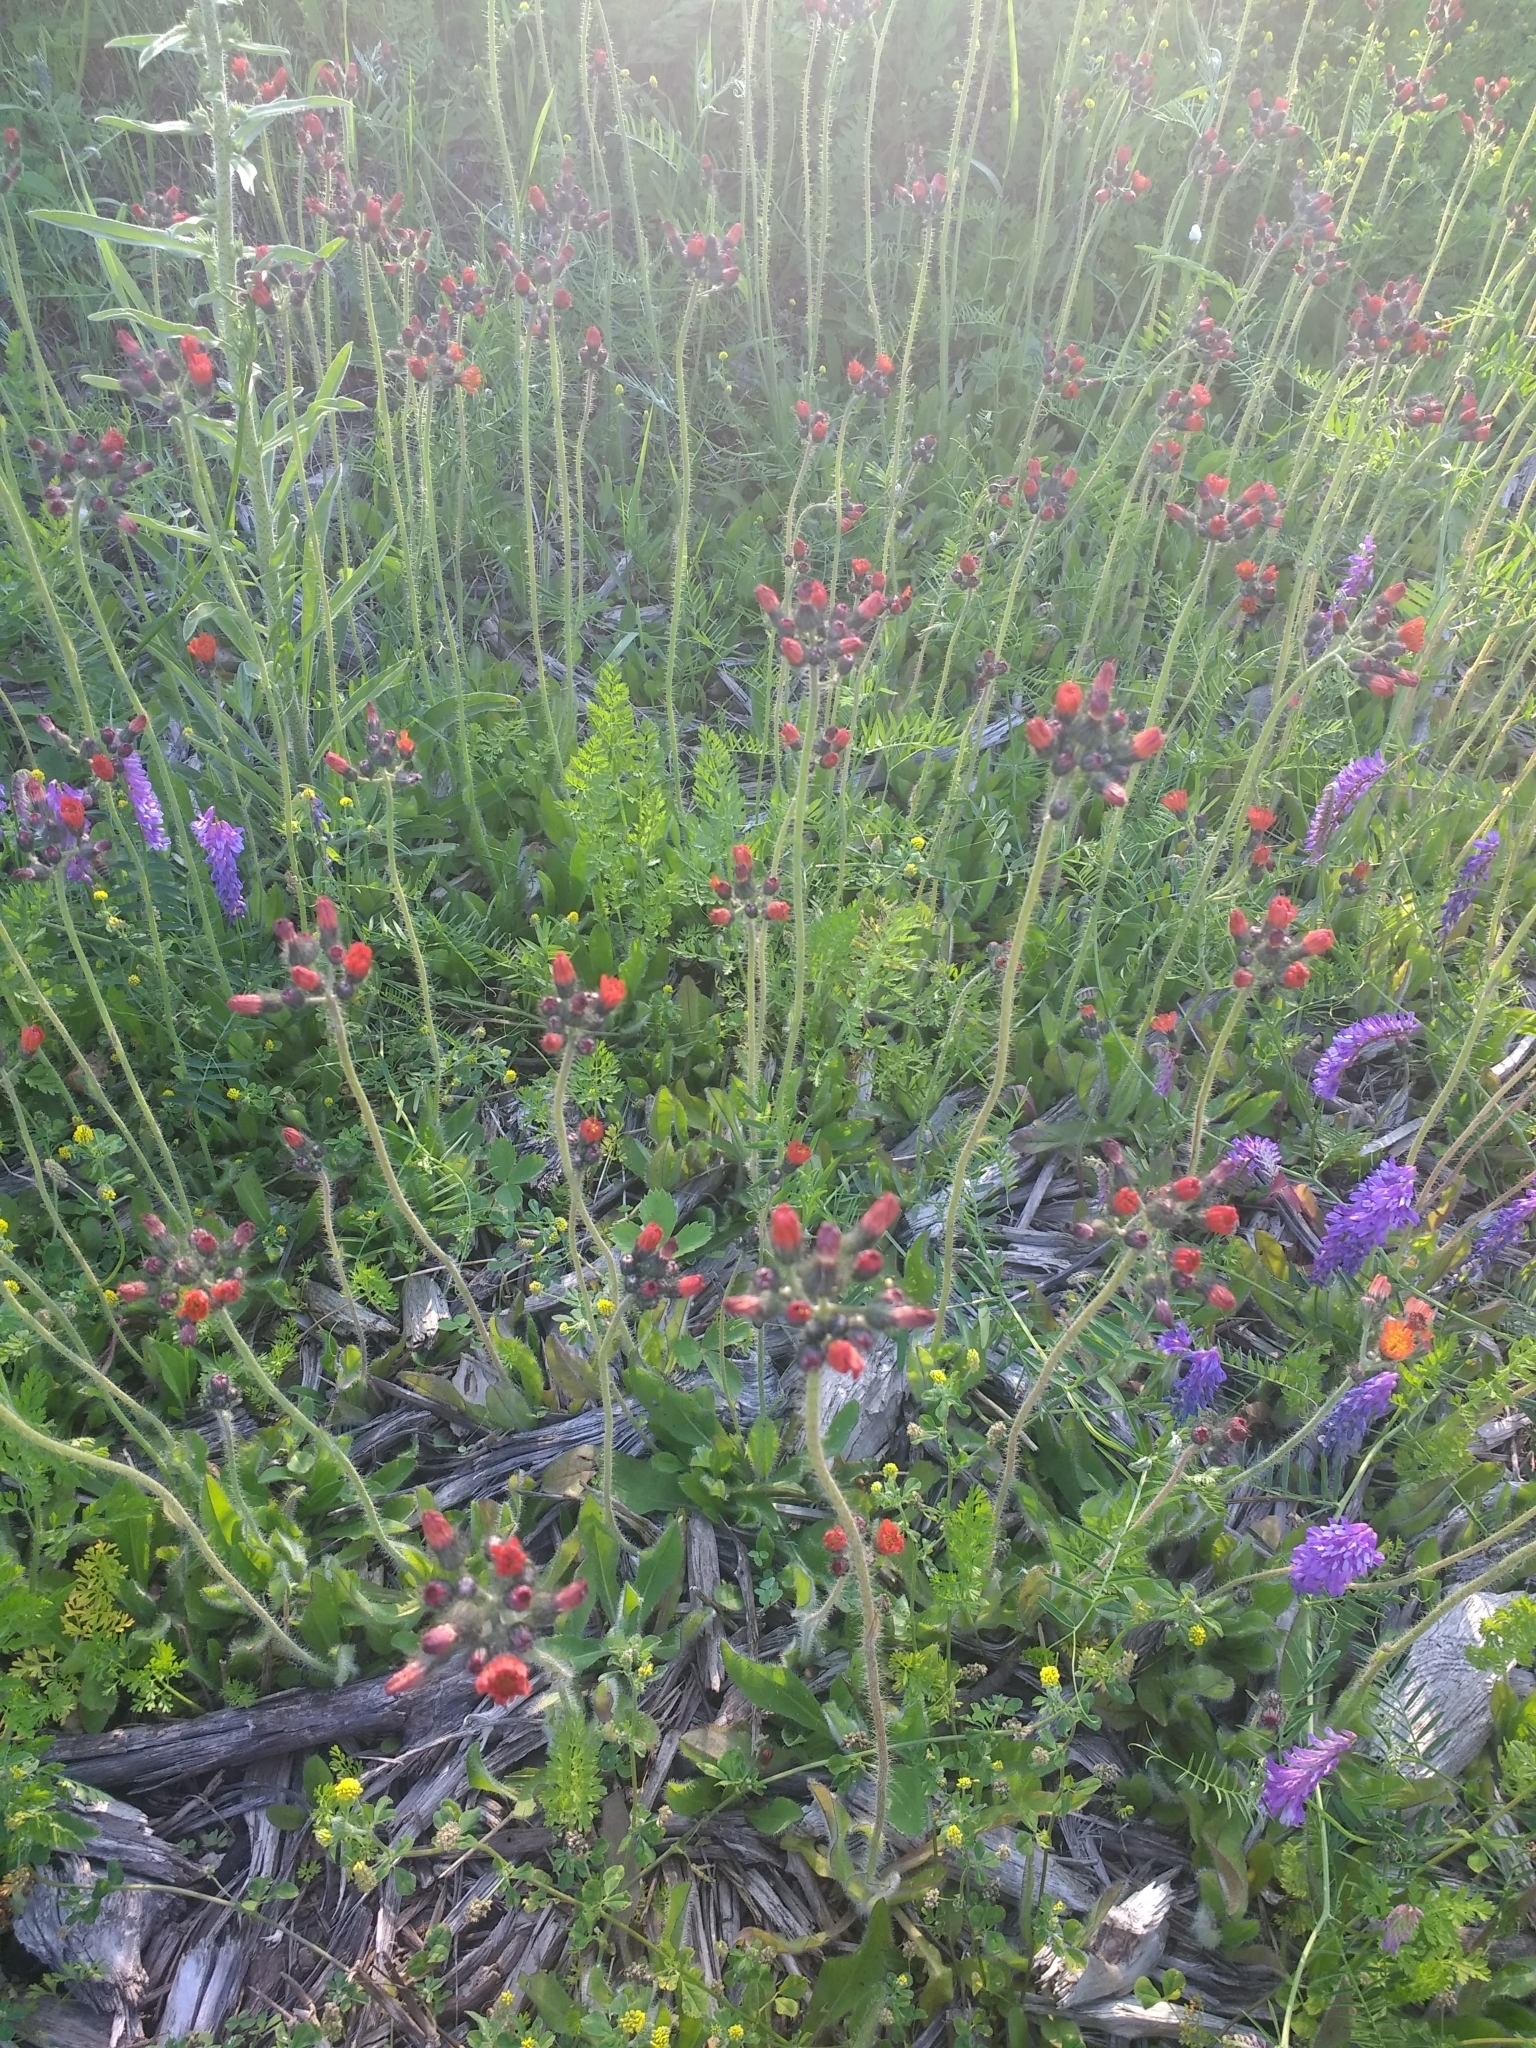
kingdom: Plantae
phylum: Tracheophyta
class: Magnoliopsida
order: Asterales
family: Asteraceae
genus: Pilosella
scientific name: Pilosella aurantiaca
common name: Fox-and-cubs
